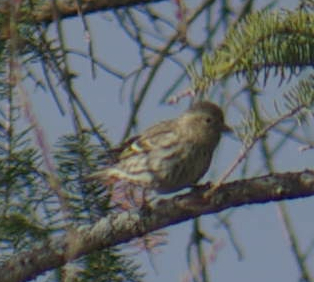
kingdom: Animalia
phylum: Chordata
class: Aves
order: Passeriformes
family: Fringillidae
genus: Spinus
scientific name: Spinus pinus
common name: Pine siskin
